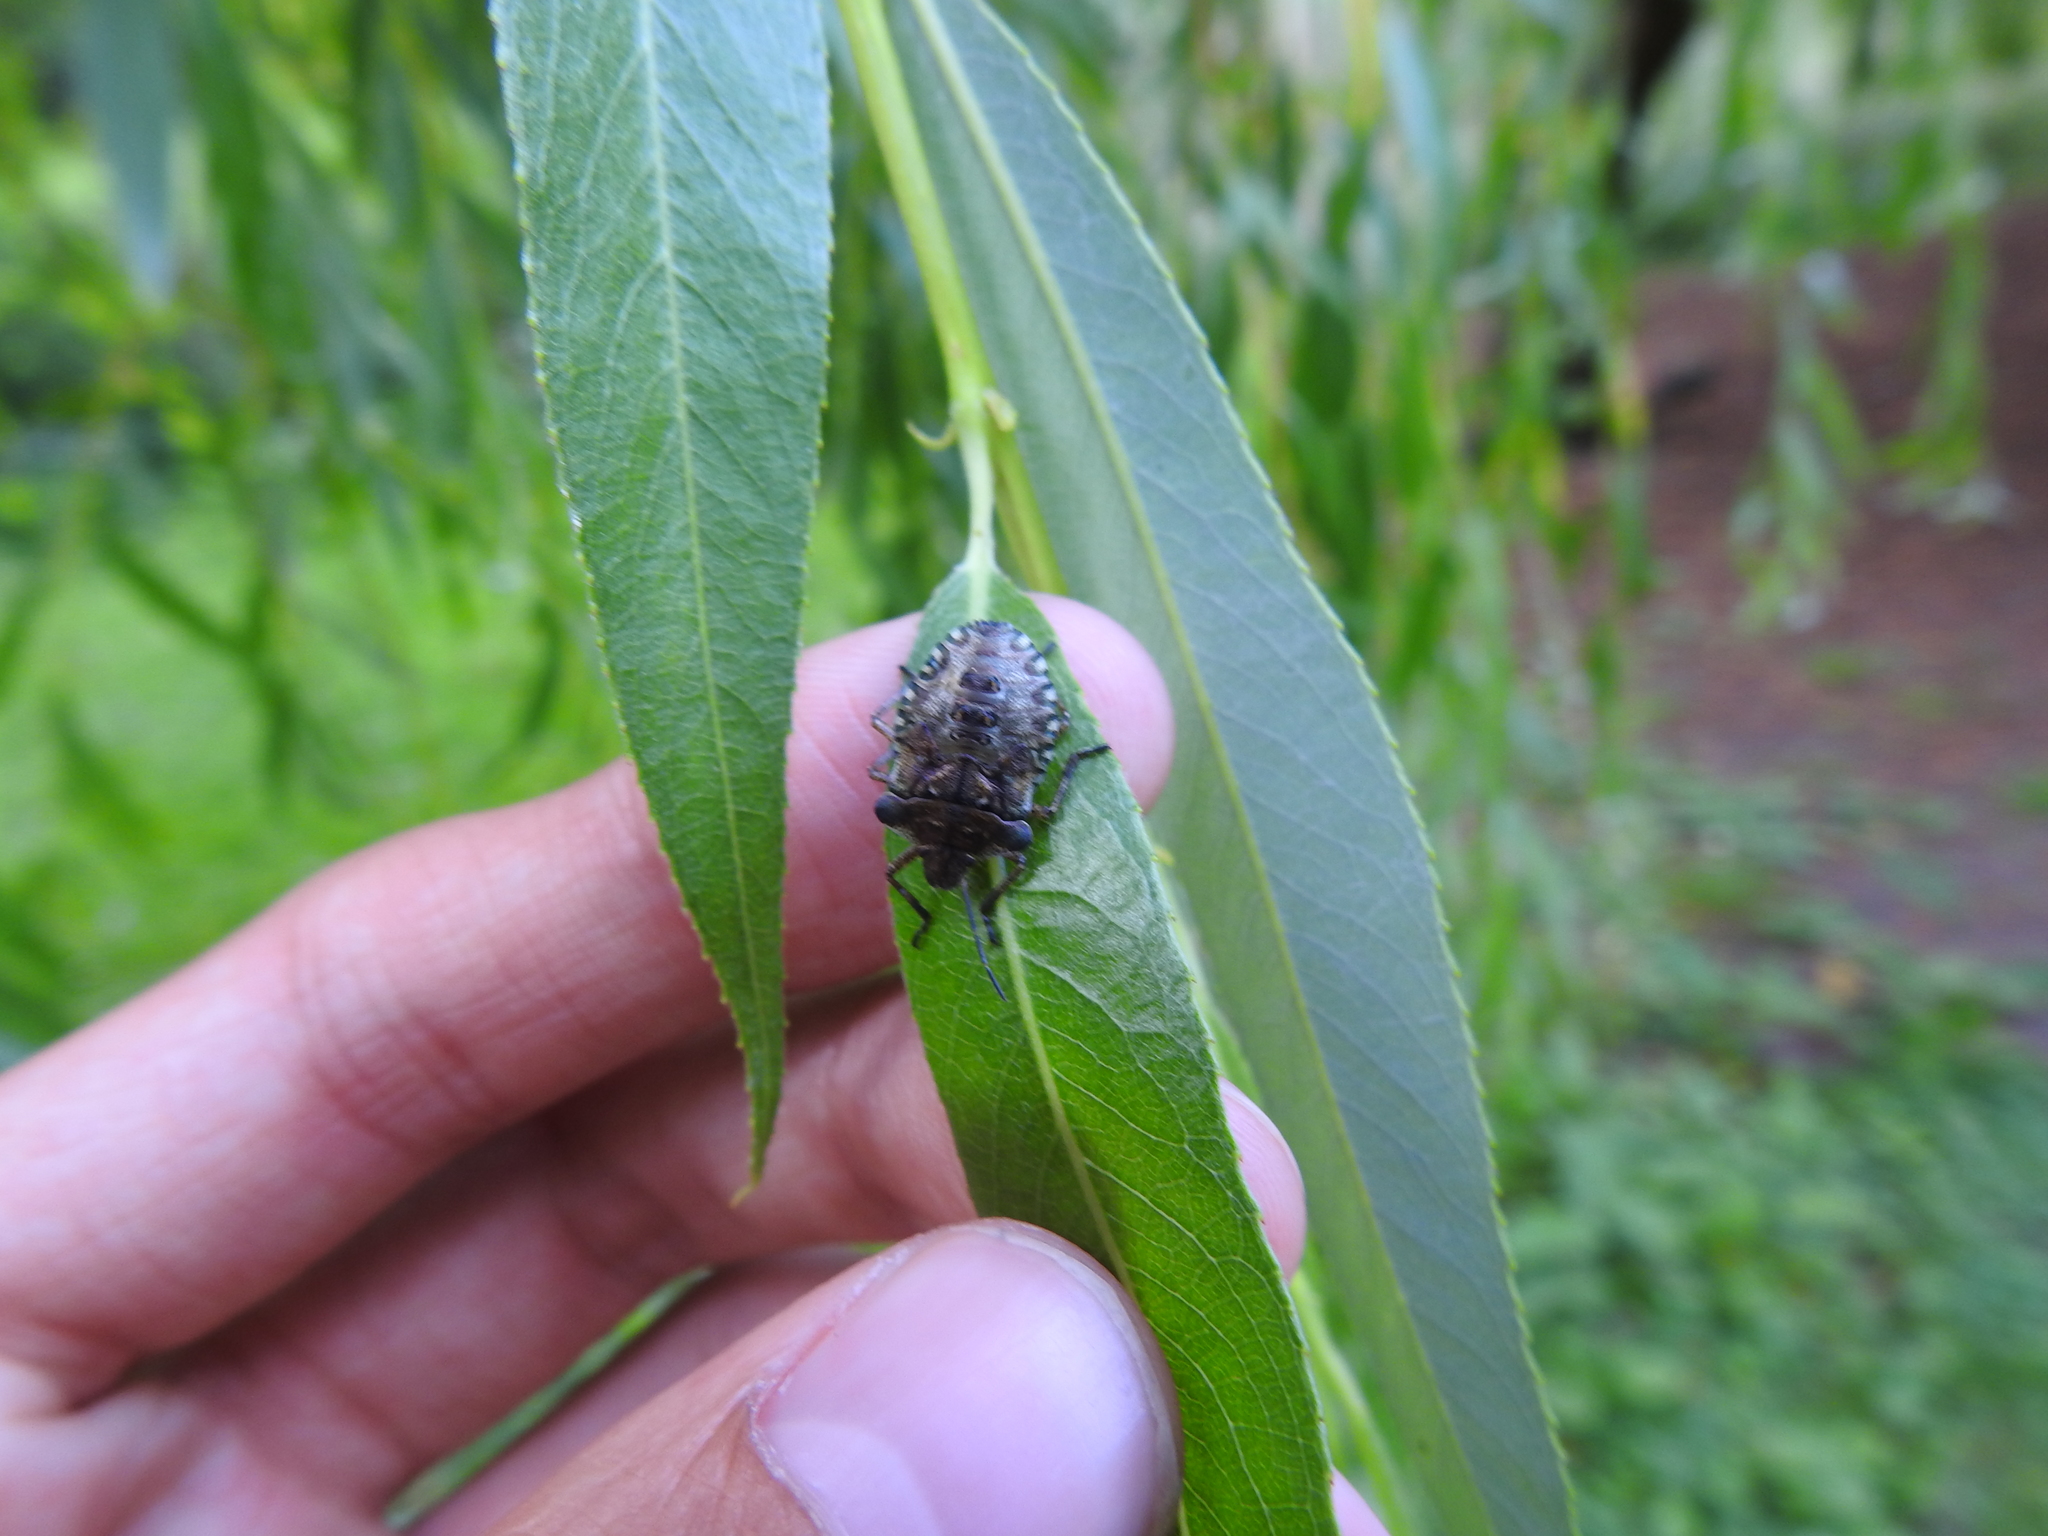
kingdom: Animalia
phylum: Arthropoda
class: Insecta
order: Hemiptera
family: Pentatomidae
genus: Pentatoma
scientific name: Pentatoma rufipes
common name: Forest bug
